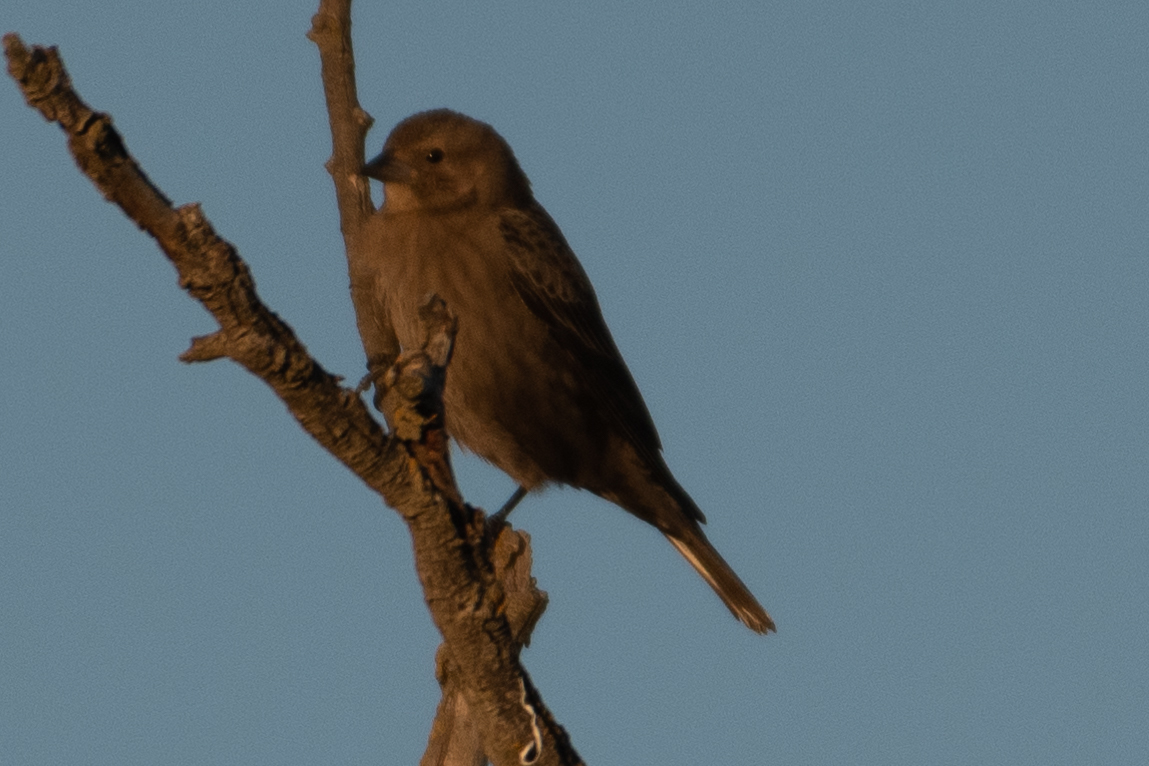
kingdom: Animalia
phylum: Chordata
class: Aves
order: Passeriformes
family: Icteridae
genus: Molothrus
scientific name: Molothrus ater
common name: Brown-headed cowbird
